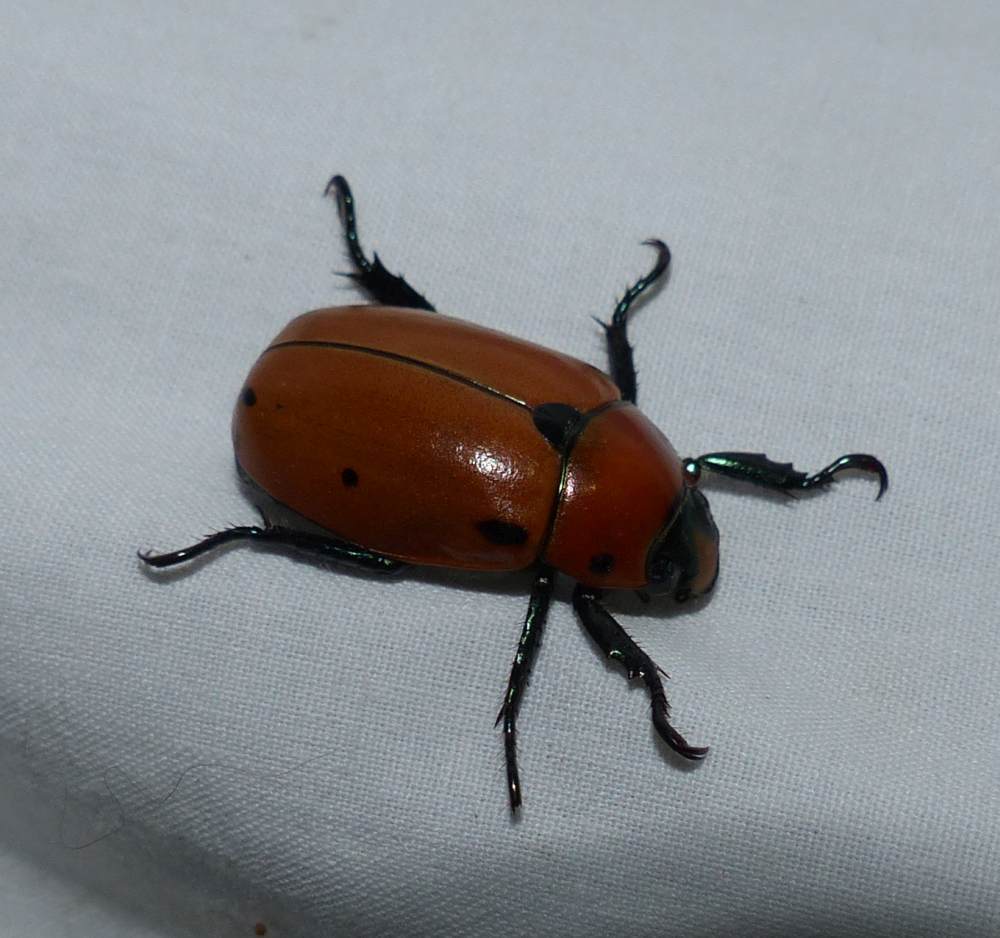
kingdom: Animalia
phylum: Arthropoda
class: Insecta
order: Coleoptera
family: Scarabaeidae
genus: Pelidnota
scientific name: Pelidnota punctata
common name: Grapevine beetle
